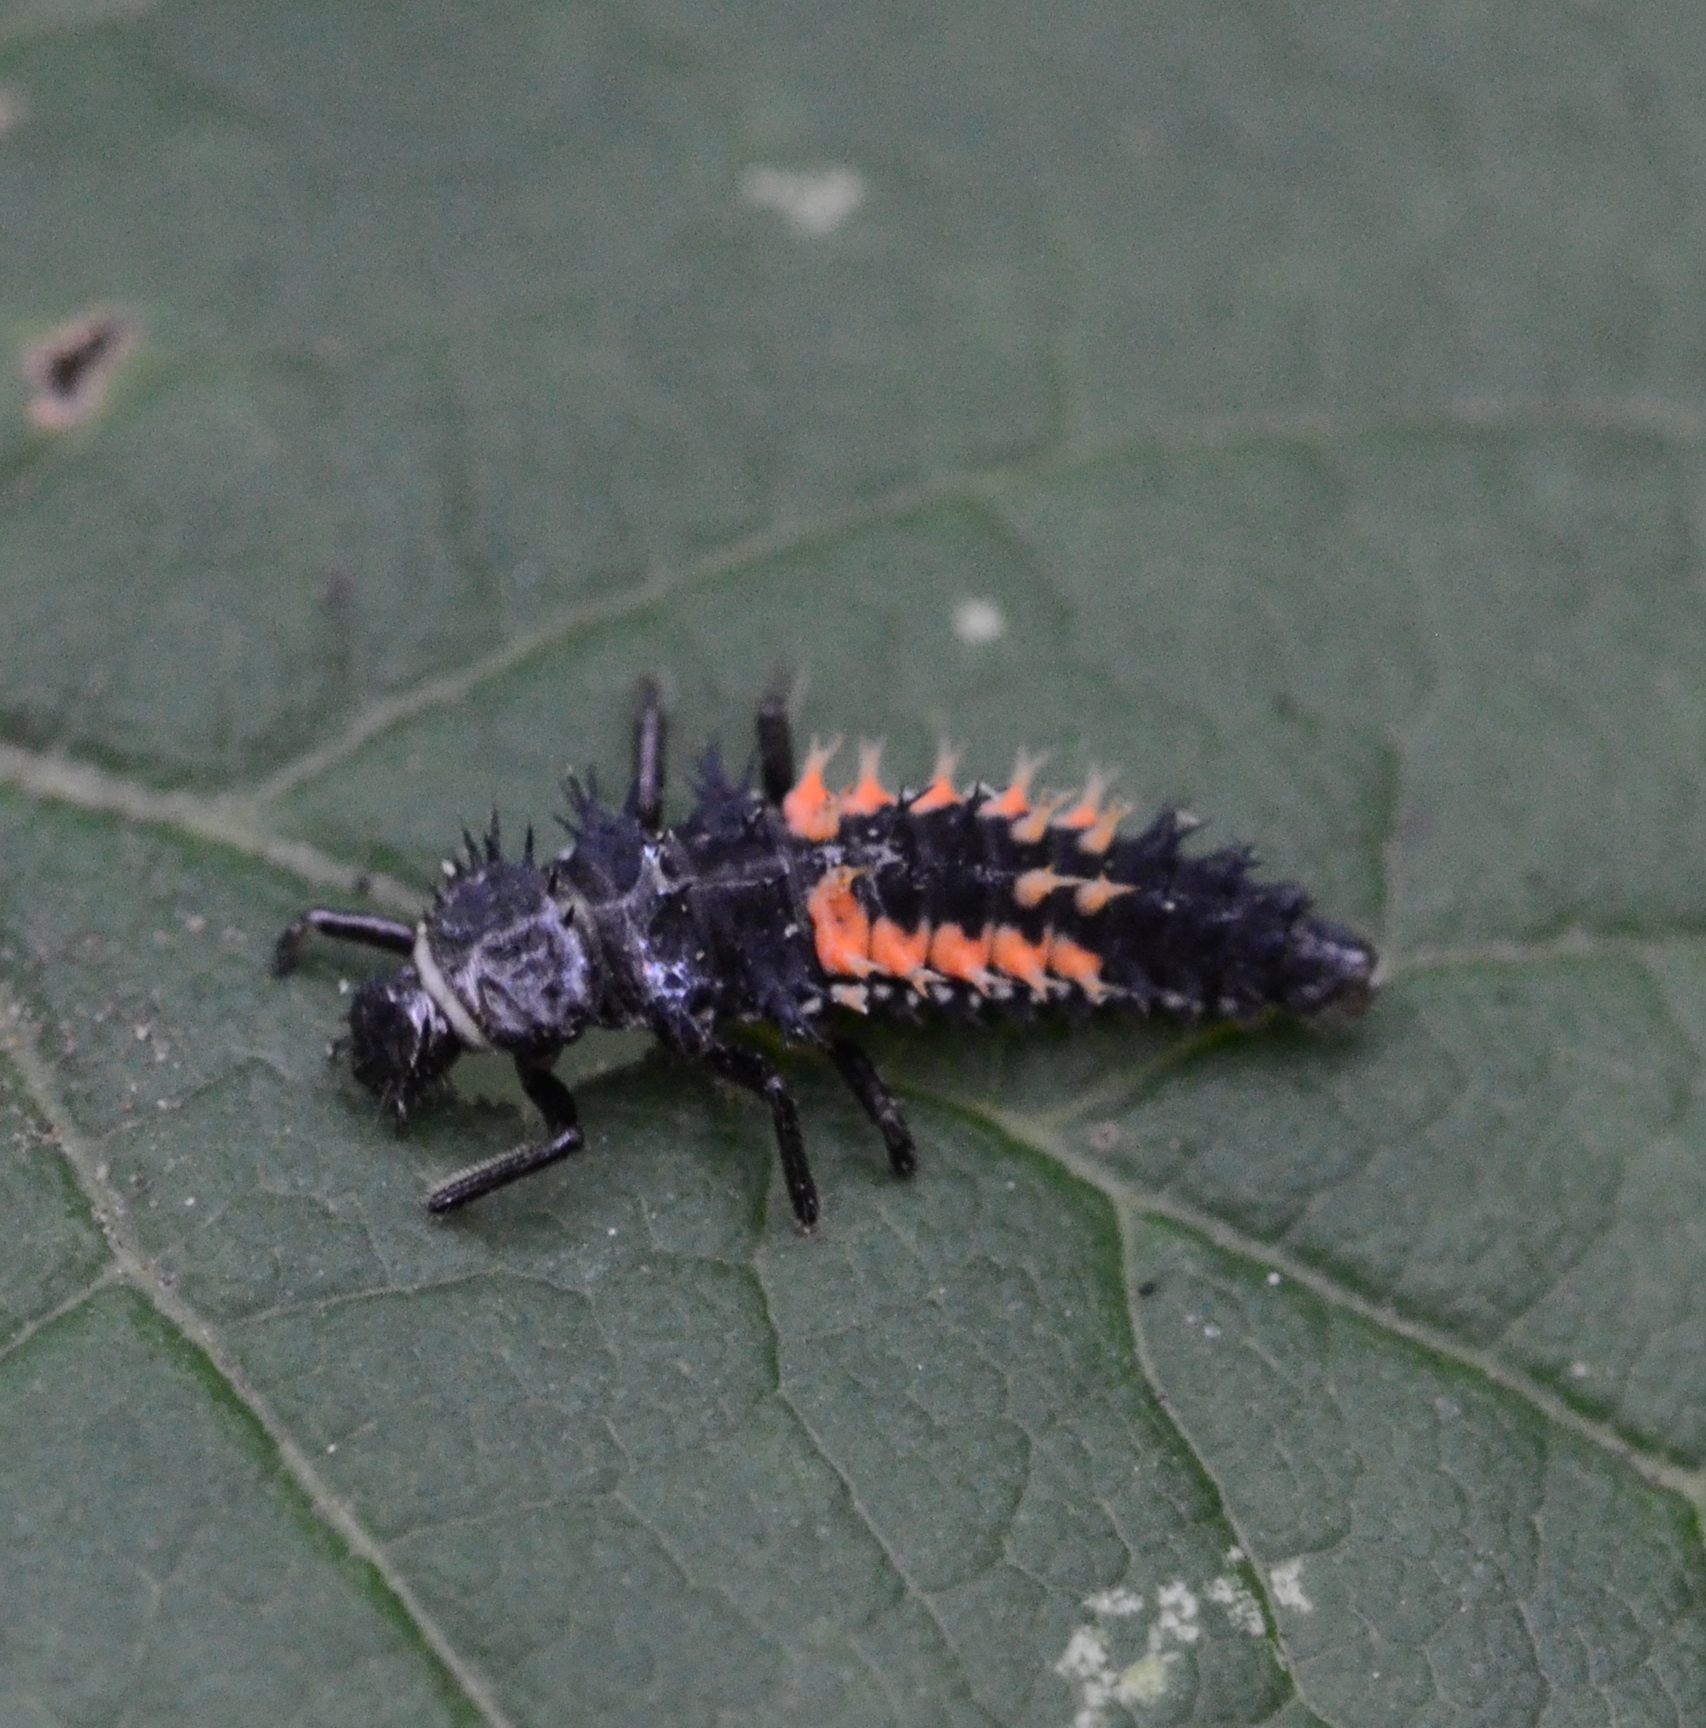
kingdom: Animalia
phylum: Arthropoda
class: Insecta
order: Coleoptera
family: Coccinellidae
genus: Harmonia
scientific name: Harmonia axyridis
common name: Harlequin ladybird
